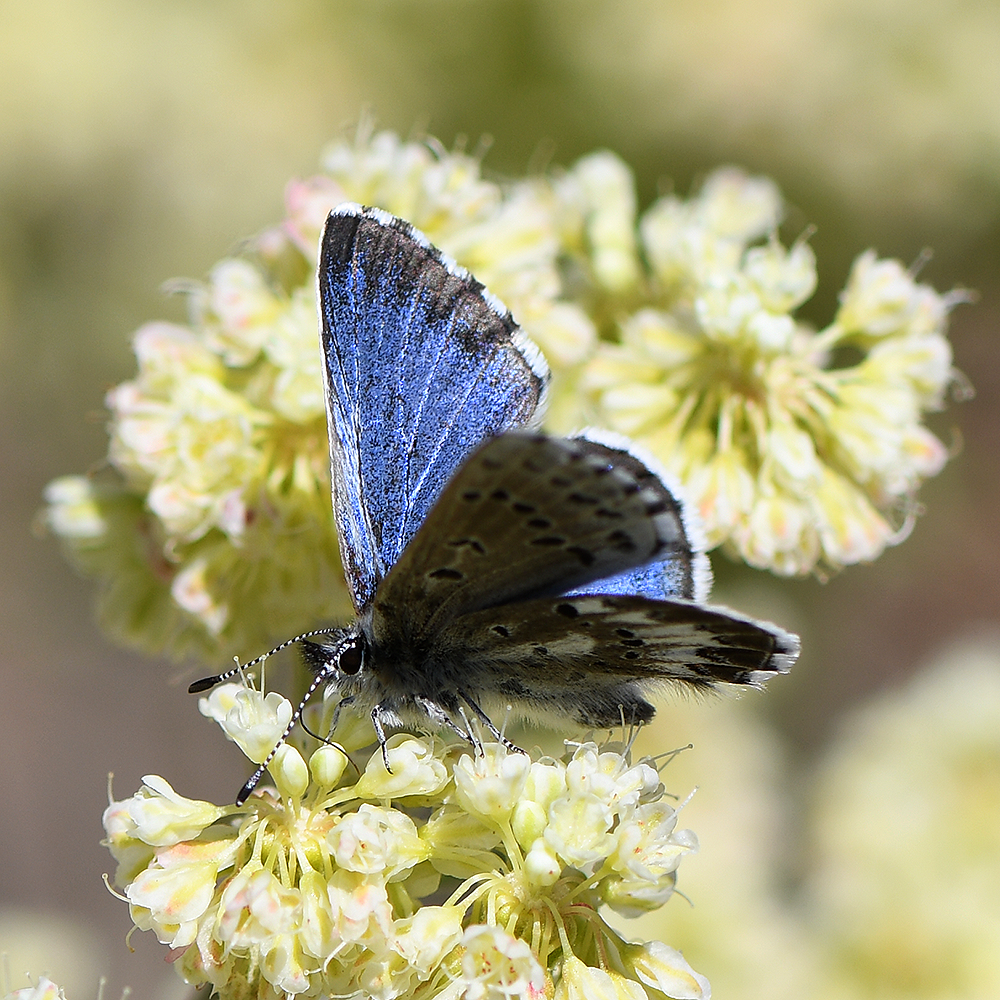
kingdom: Animalia
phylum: Arthropoda
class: Insecta
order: Lepidoptera
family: Lycaenidae
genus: Glaucopsyche
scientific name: Glaucopsyche piasus
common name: Arrowhead blue
